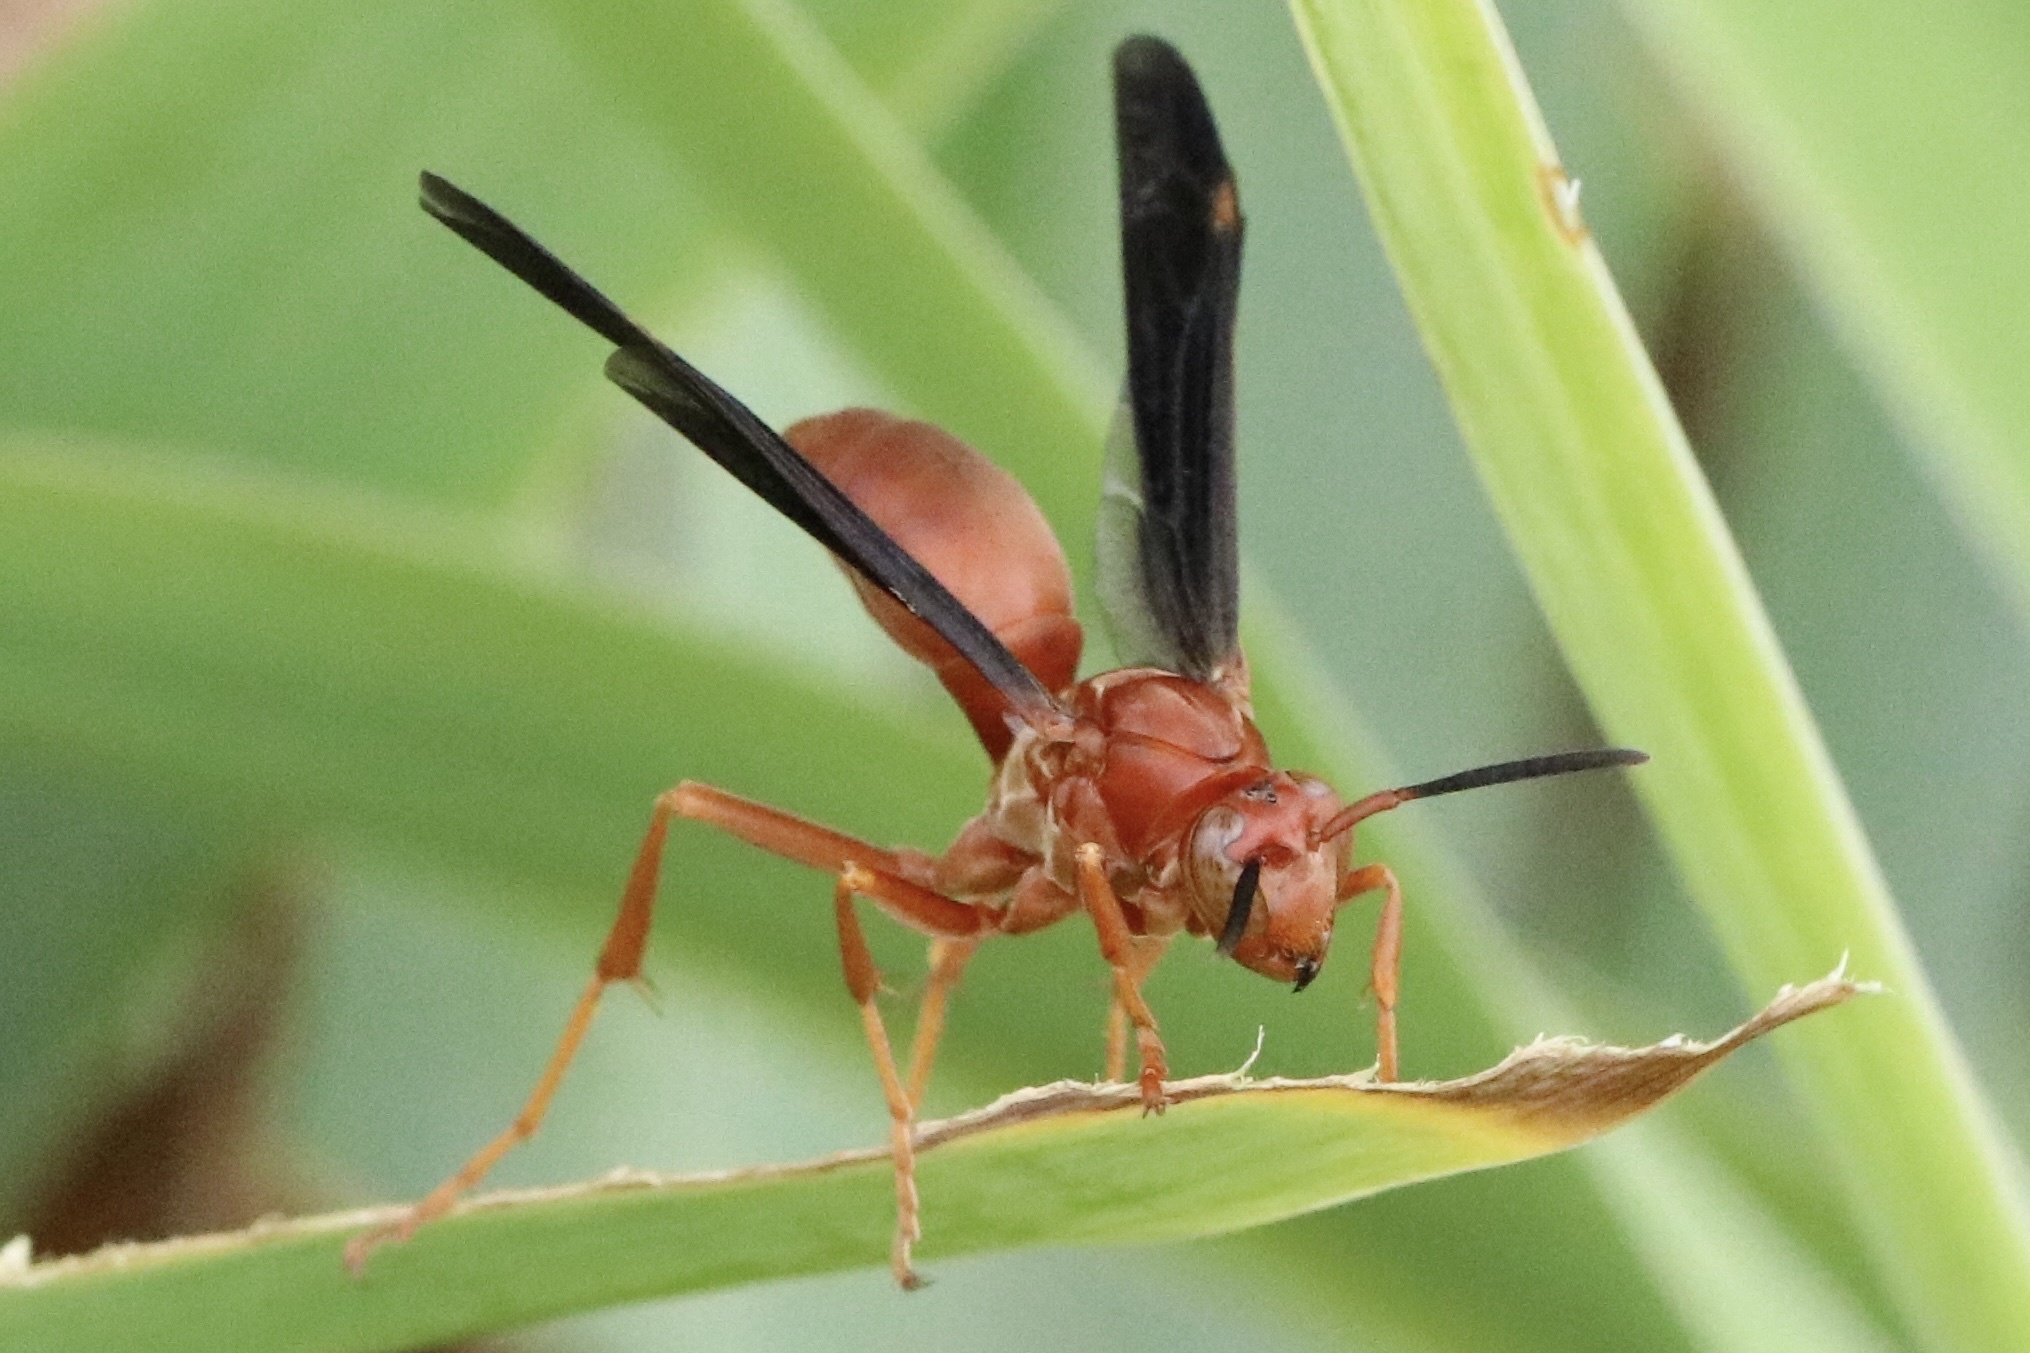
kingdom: Animalia
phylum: Arthropoda
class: Insecta
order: Hymenoptera
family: Vespidae
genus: Fuscopolistes
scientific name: Fuscopolistes
